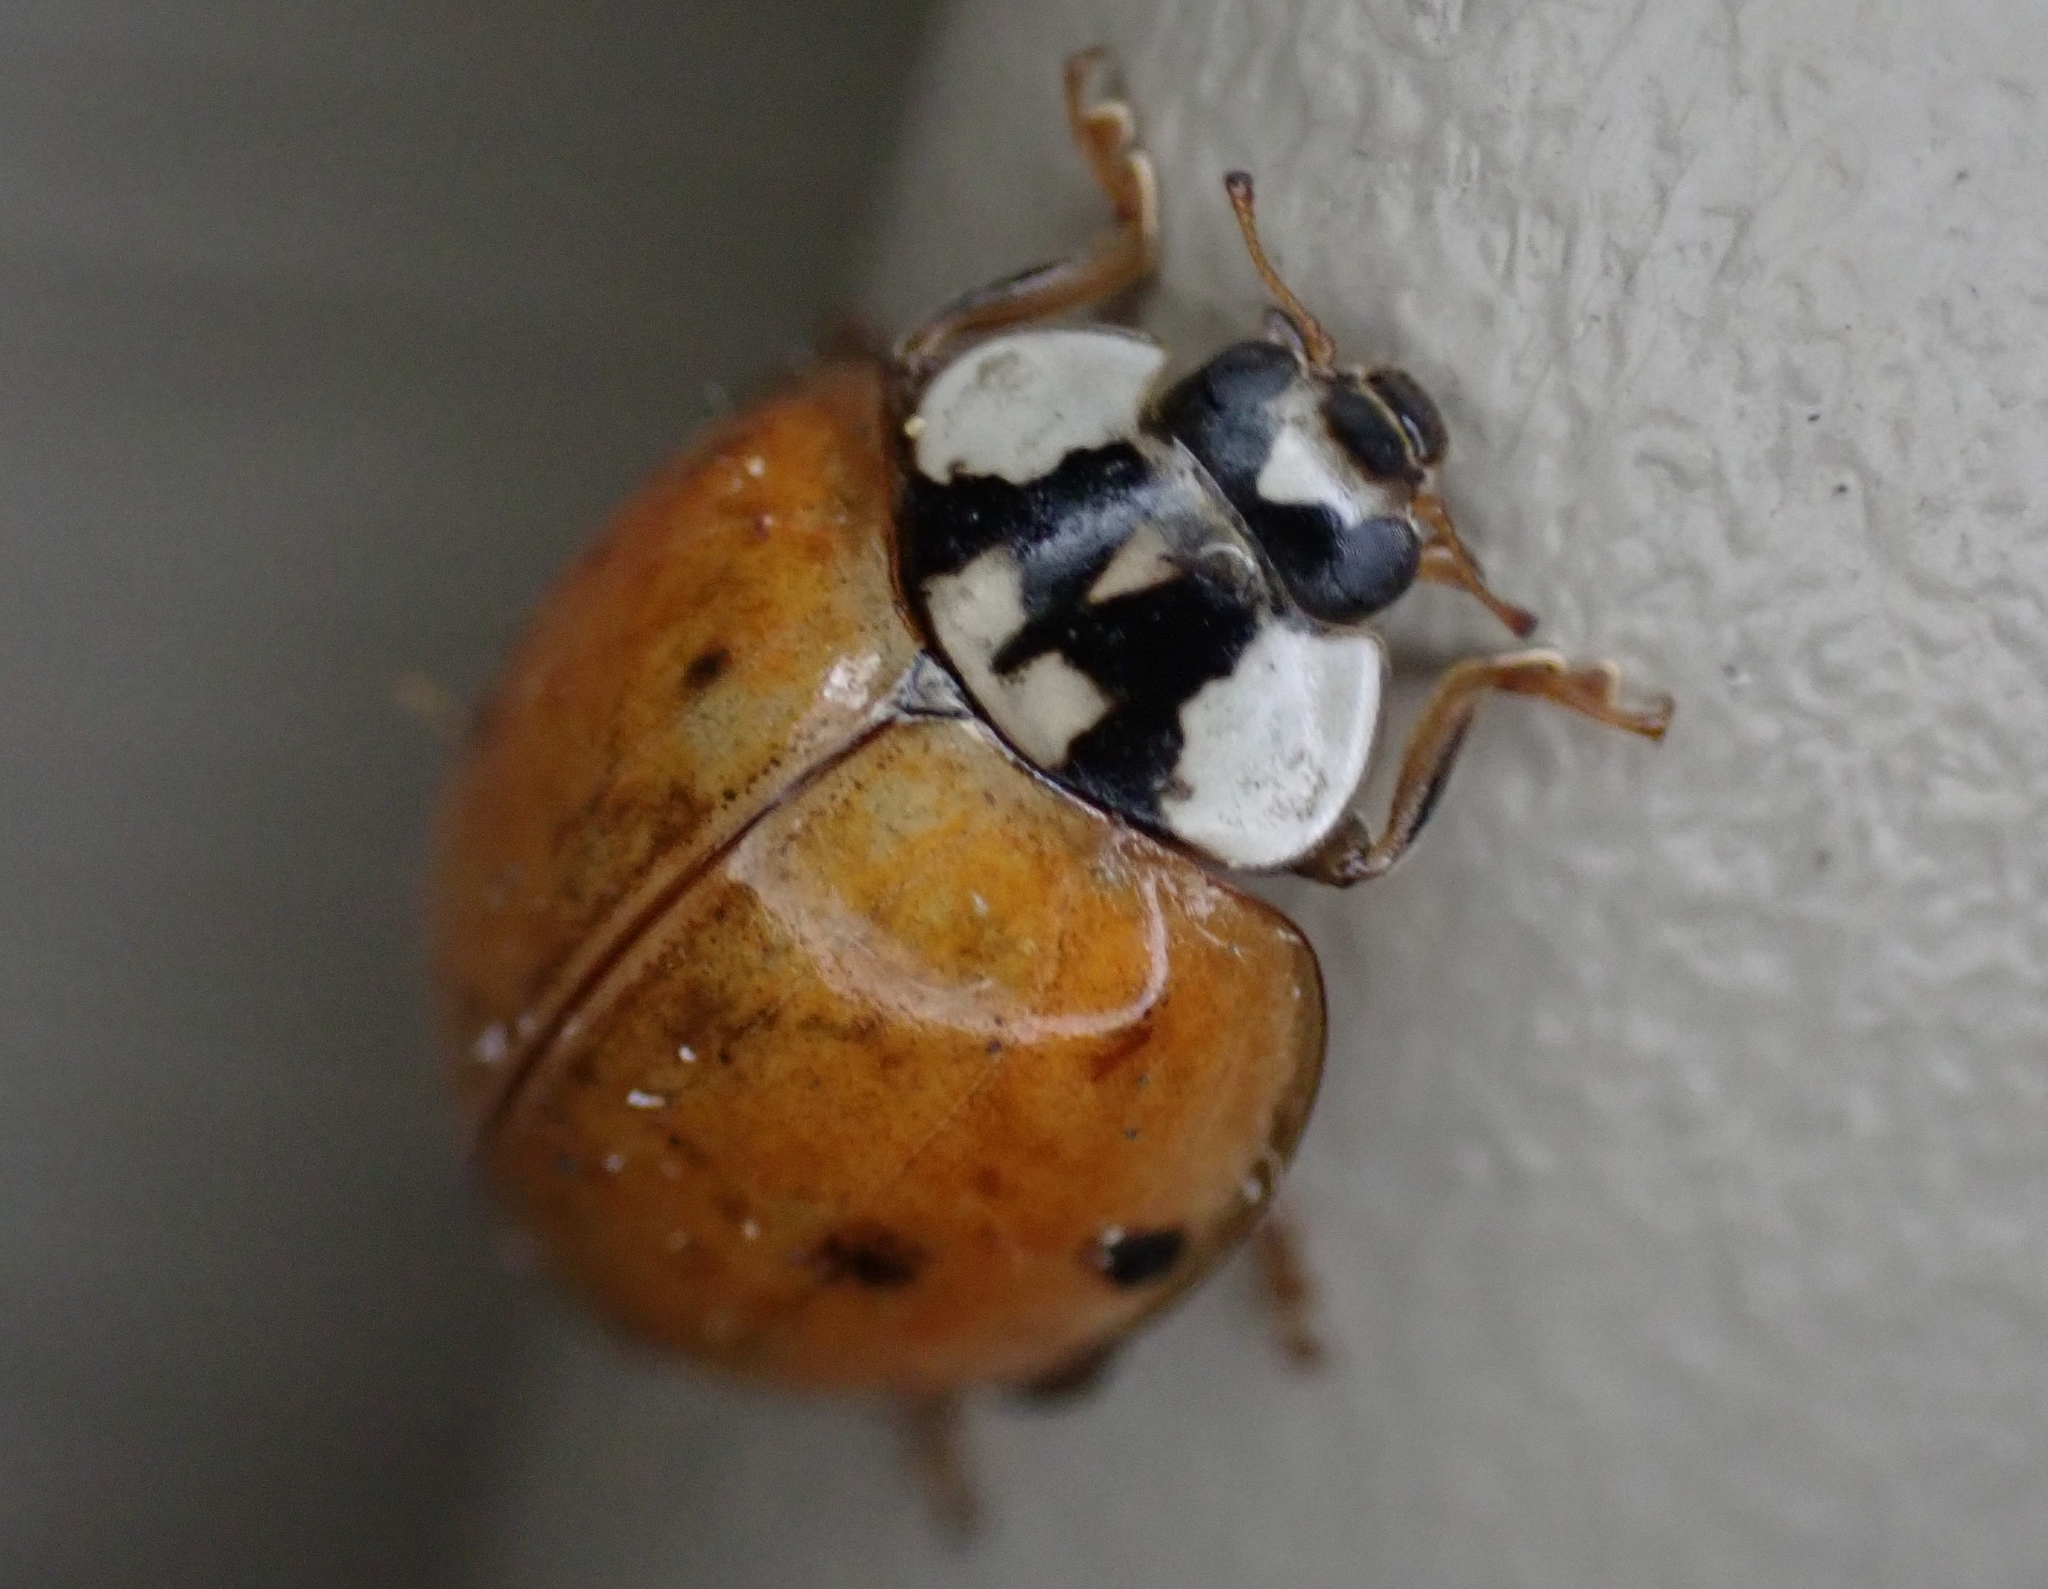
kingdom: Animalia
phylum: Arthropoda
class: Insecta
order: Coleoptera
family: Coccinellidae
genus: Harmonia
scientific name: Harmonia axyridis
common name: Harlequin ladybird
